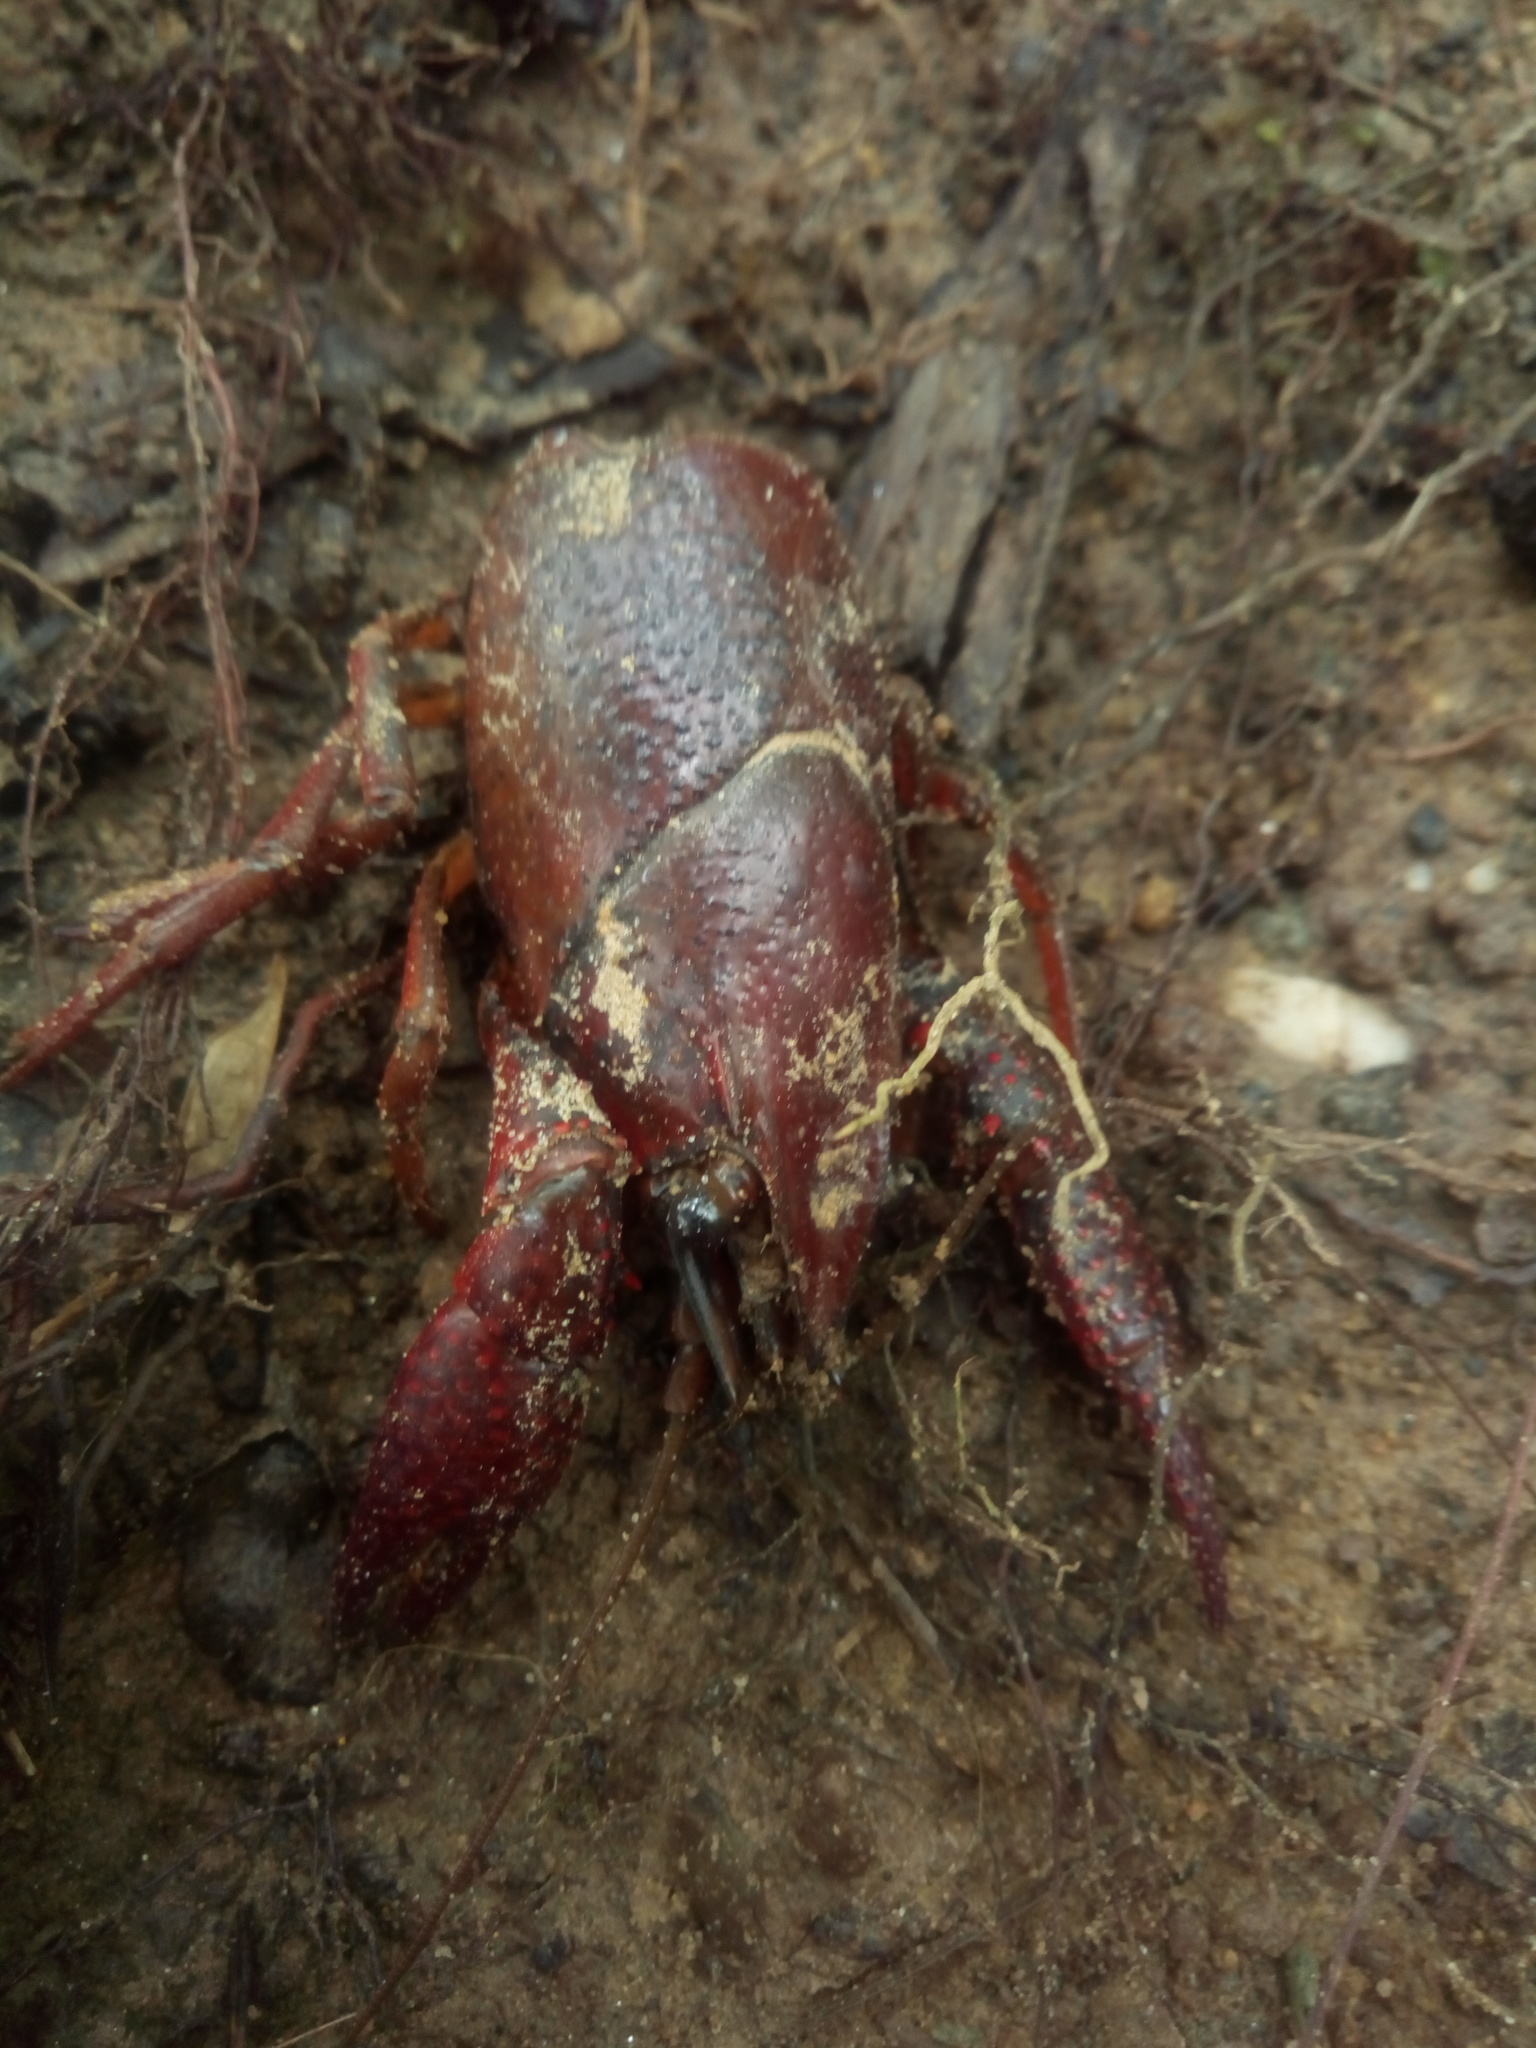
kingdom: Animalia
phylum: Arthropoda
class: Malacostraca
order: Decapoda
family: Cambaridae
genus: Procambarus
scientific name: Procambarus clarkii
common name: Red swamp crayfish
